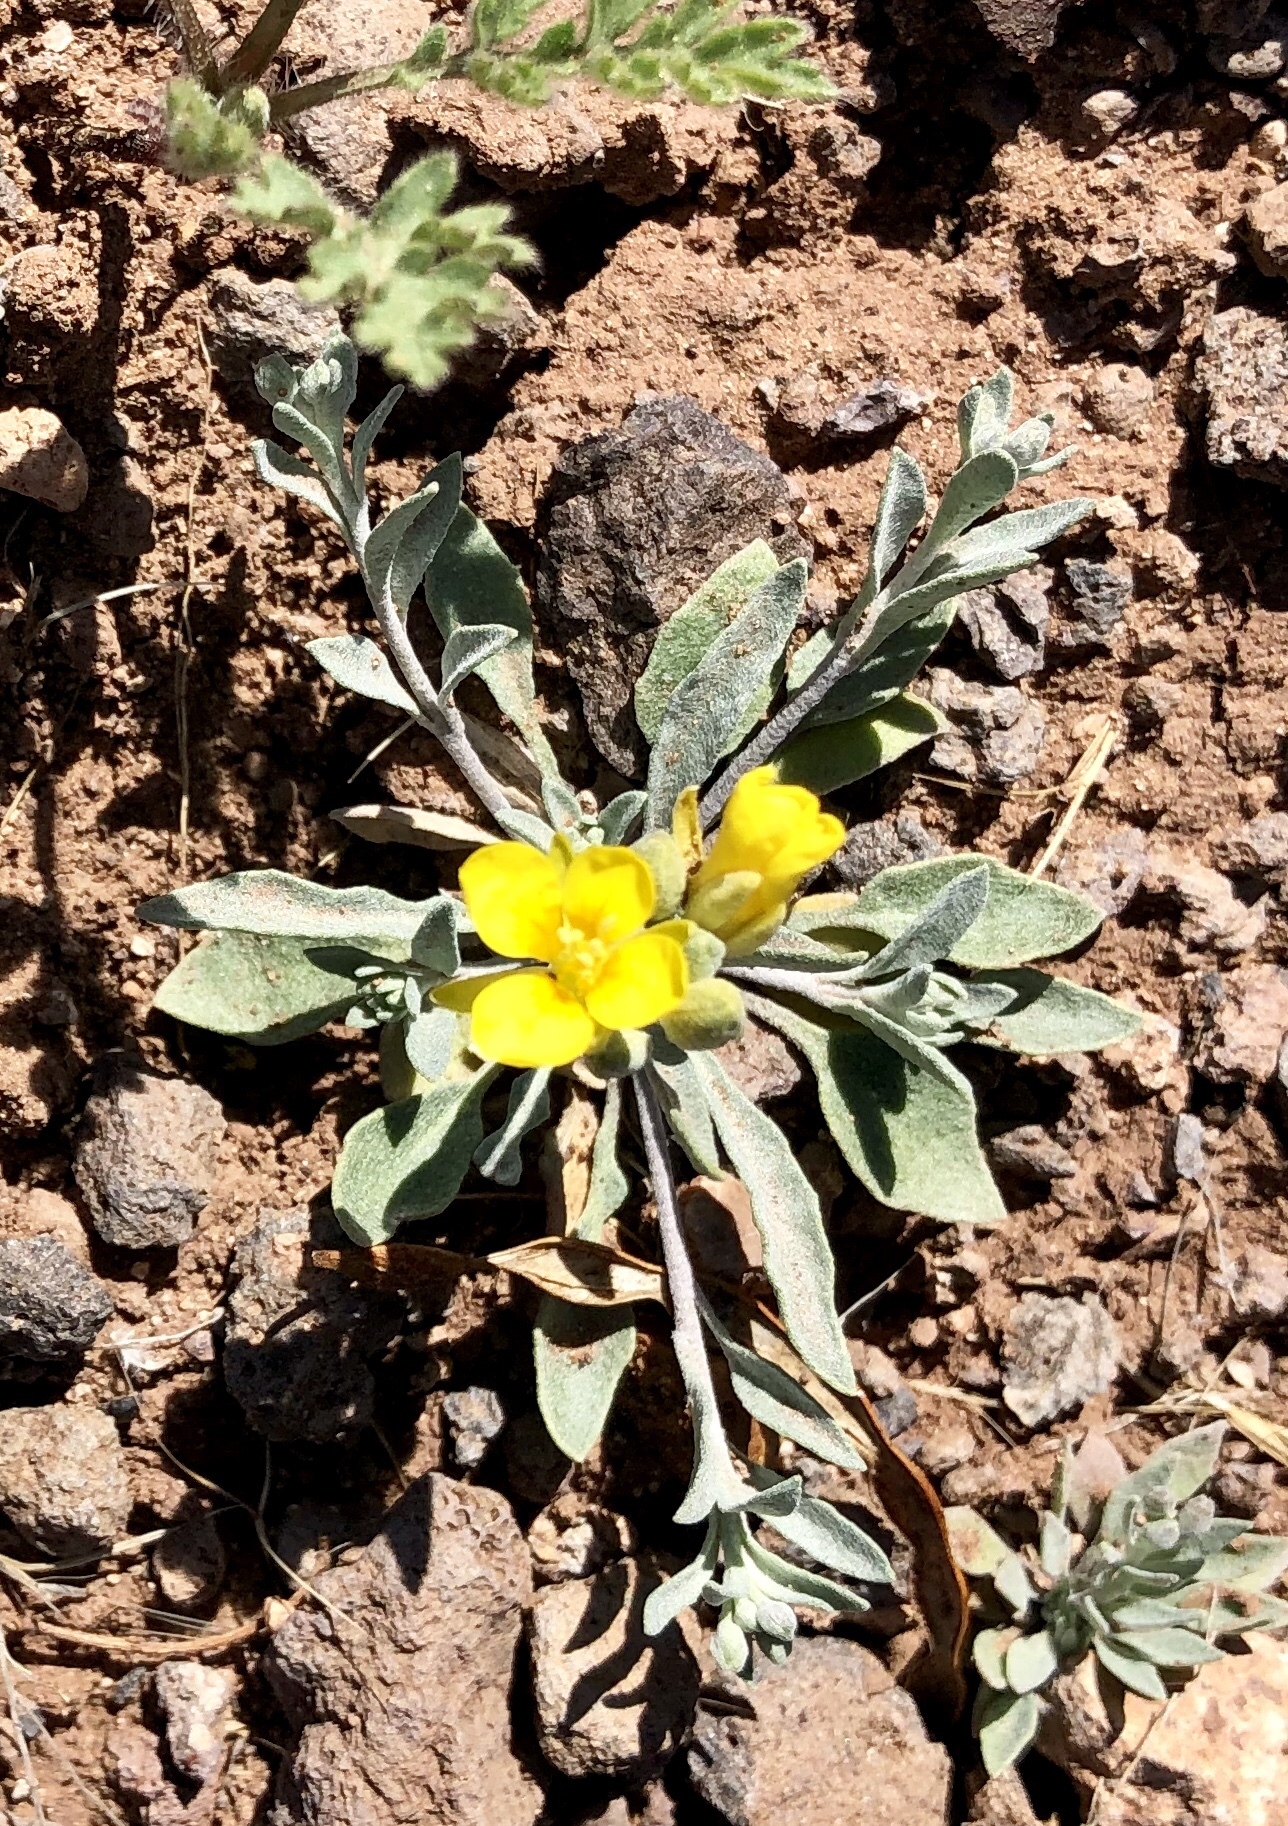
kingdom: Plantae
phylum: Tracheophyta
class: Magnoliopsida
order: Brassicales
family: Brassicaceae
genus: Physaria
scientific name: Physaria gordonii
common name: Gordon's bladderpod
